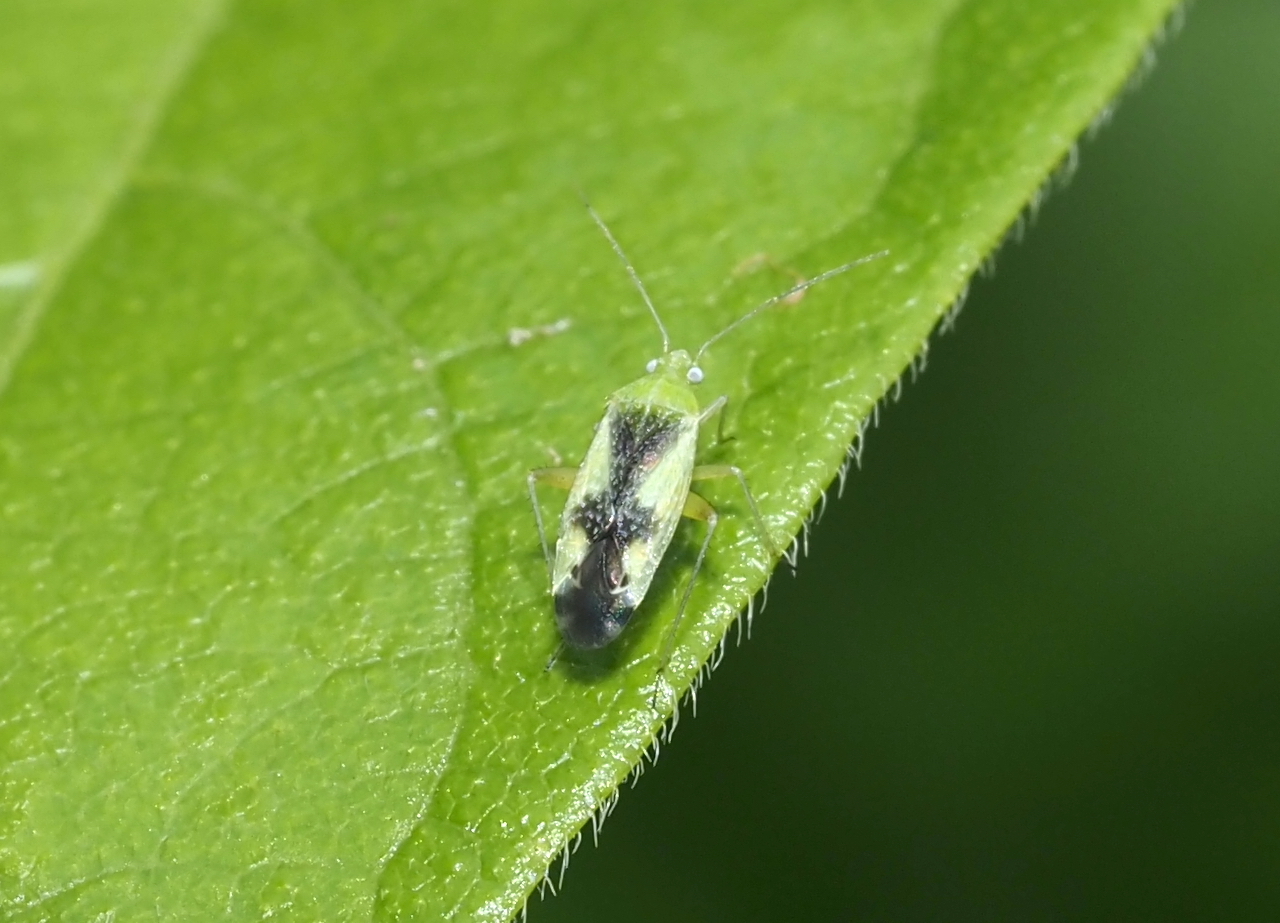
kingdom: Animalia
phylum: Arthropoda
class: Insecta
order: Hemiptera
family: Miridae
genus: Reuteroscopus
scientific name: Reuteroscopus ornatus
